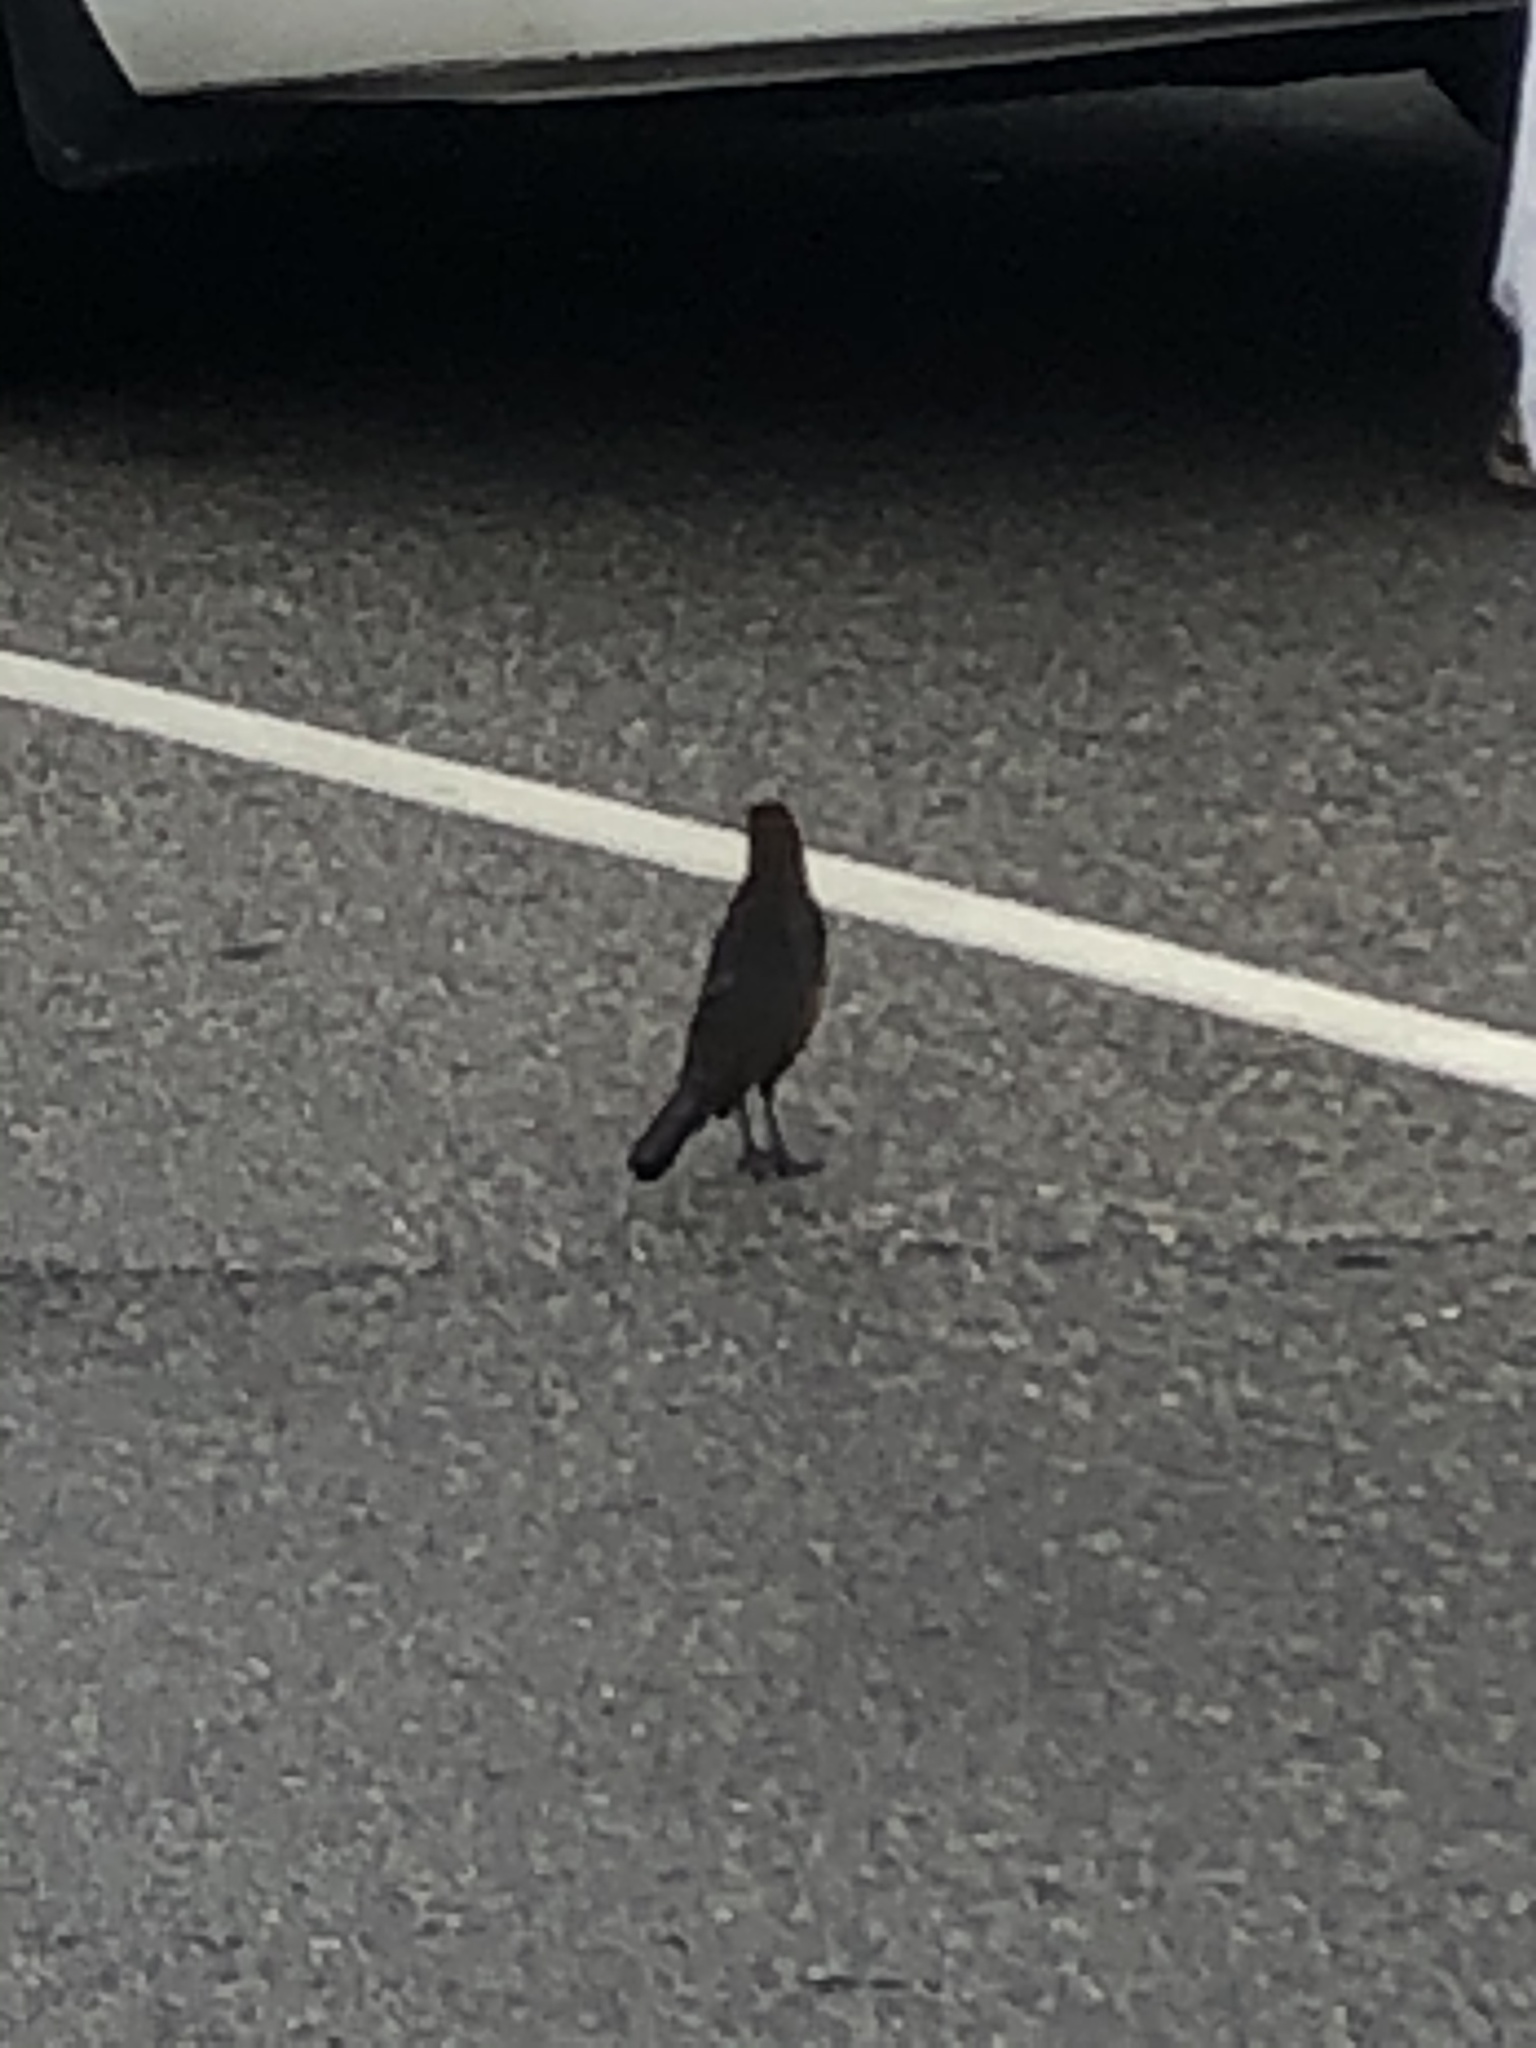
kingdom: Animalia
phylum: Chordata
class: Aves
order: Passeriformes
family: Icteridae
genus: Quiscalus
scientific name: Quiscalus major
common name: Boat-tailed grackle
